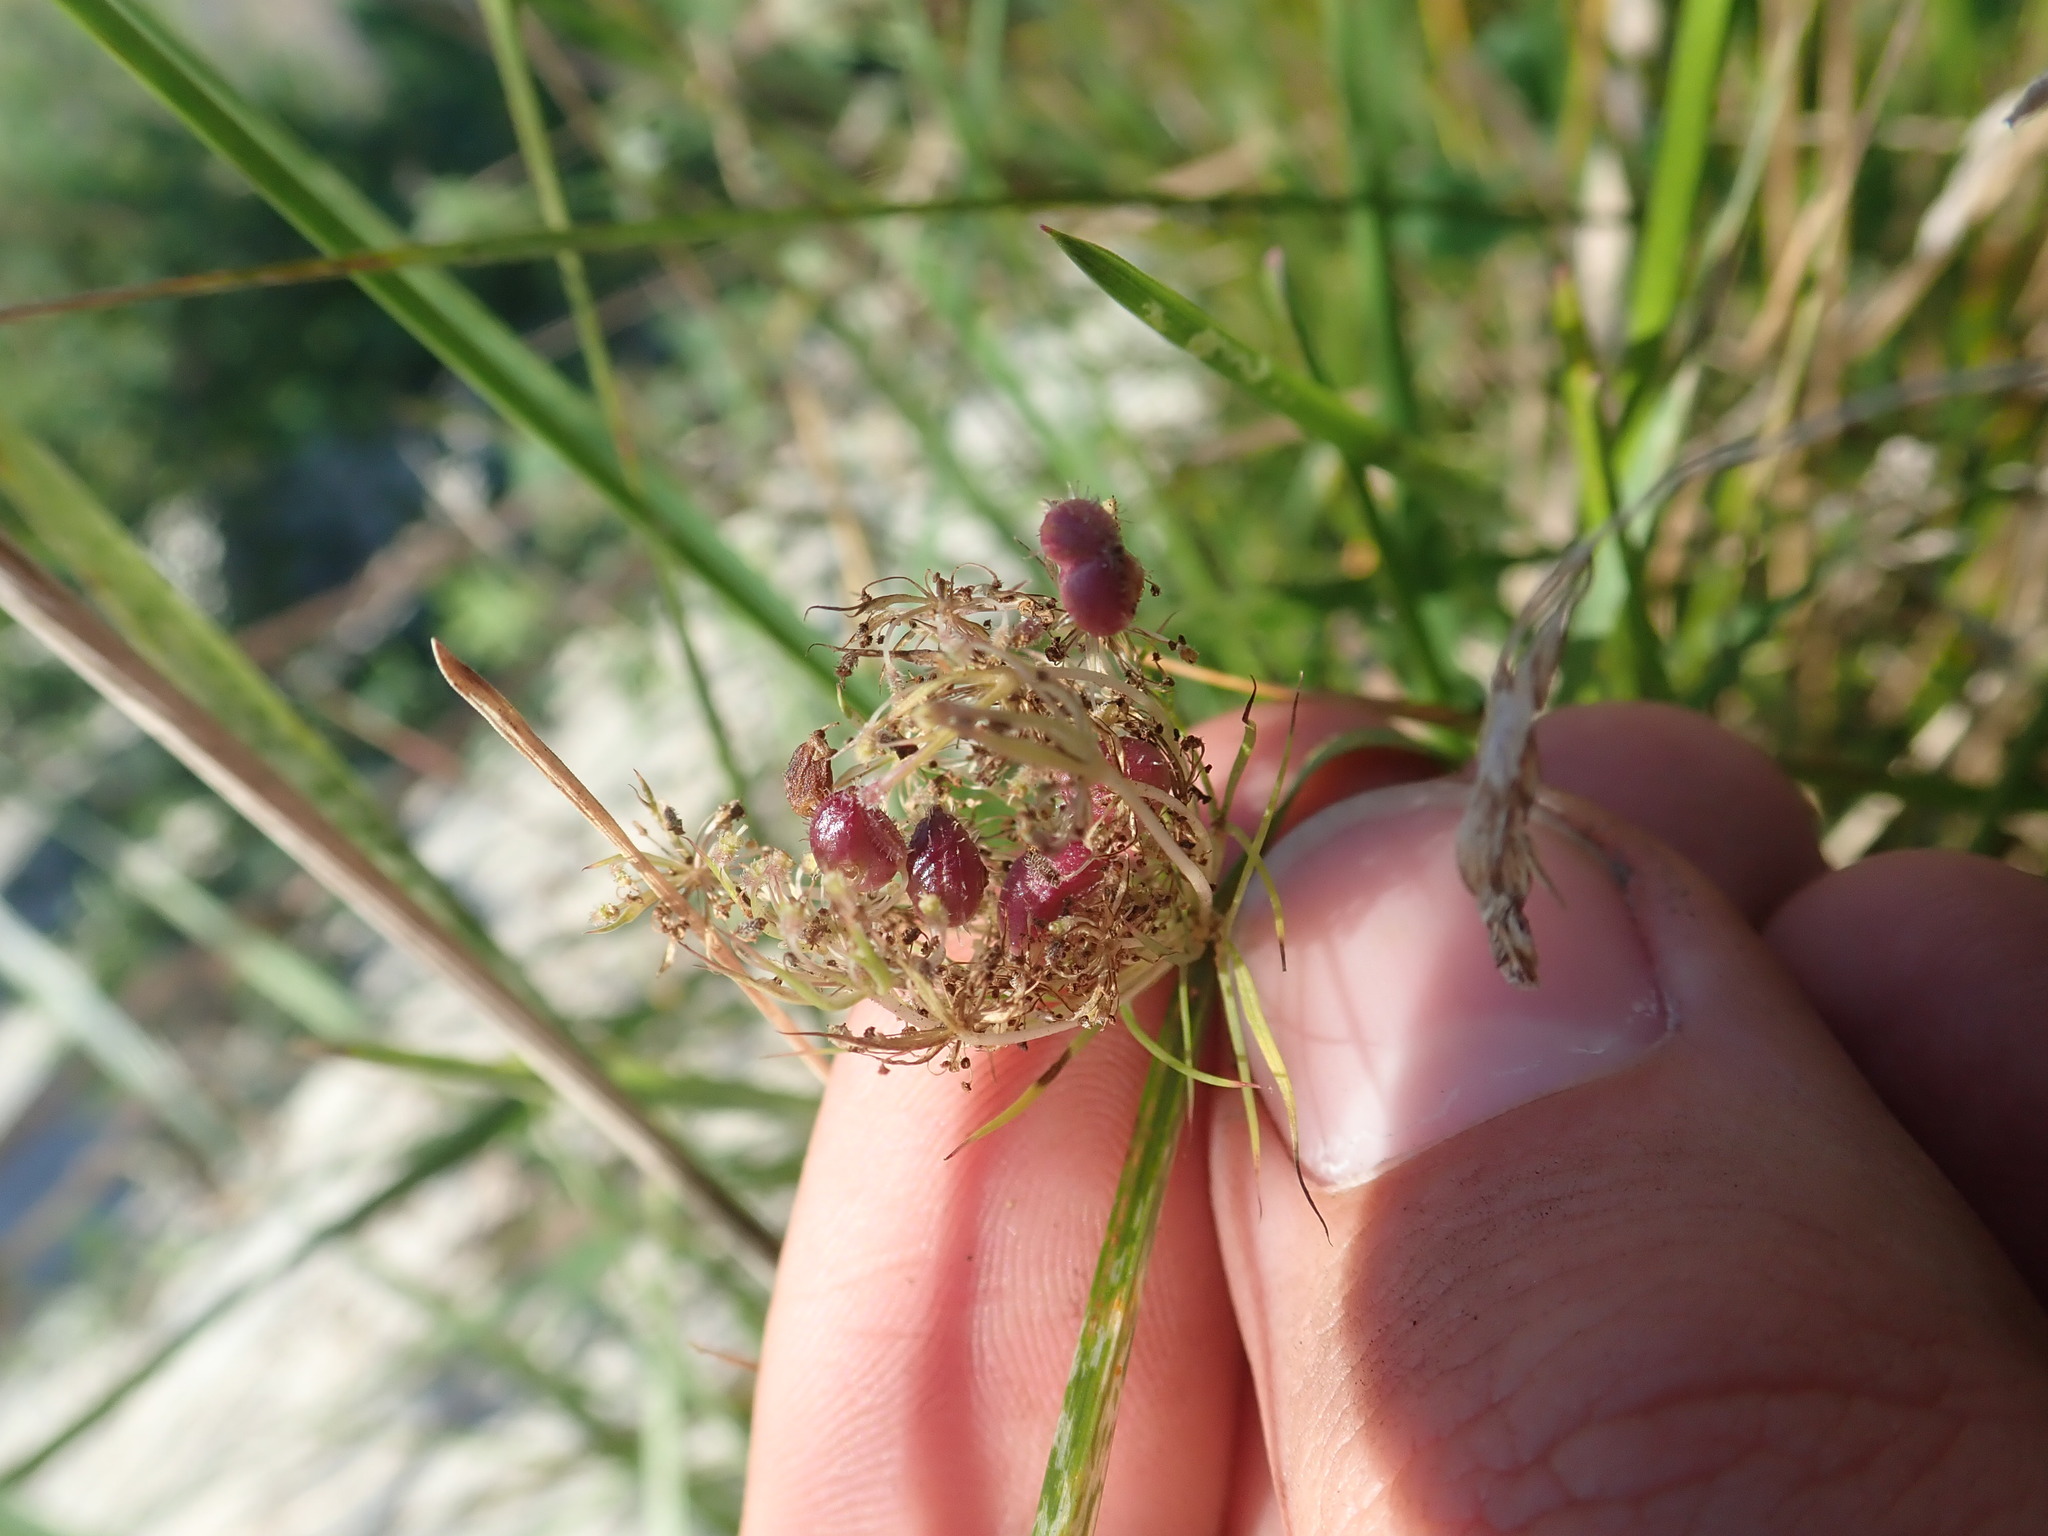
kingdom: Animalia
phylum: Arthropoda
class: Insecta
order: Diptera
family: Cecidomyiidae
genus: Kiefferia
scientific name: Kiefferia pericarpiicola
